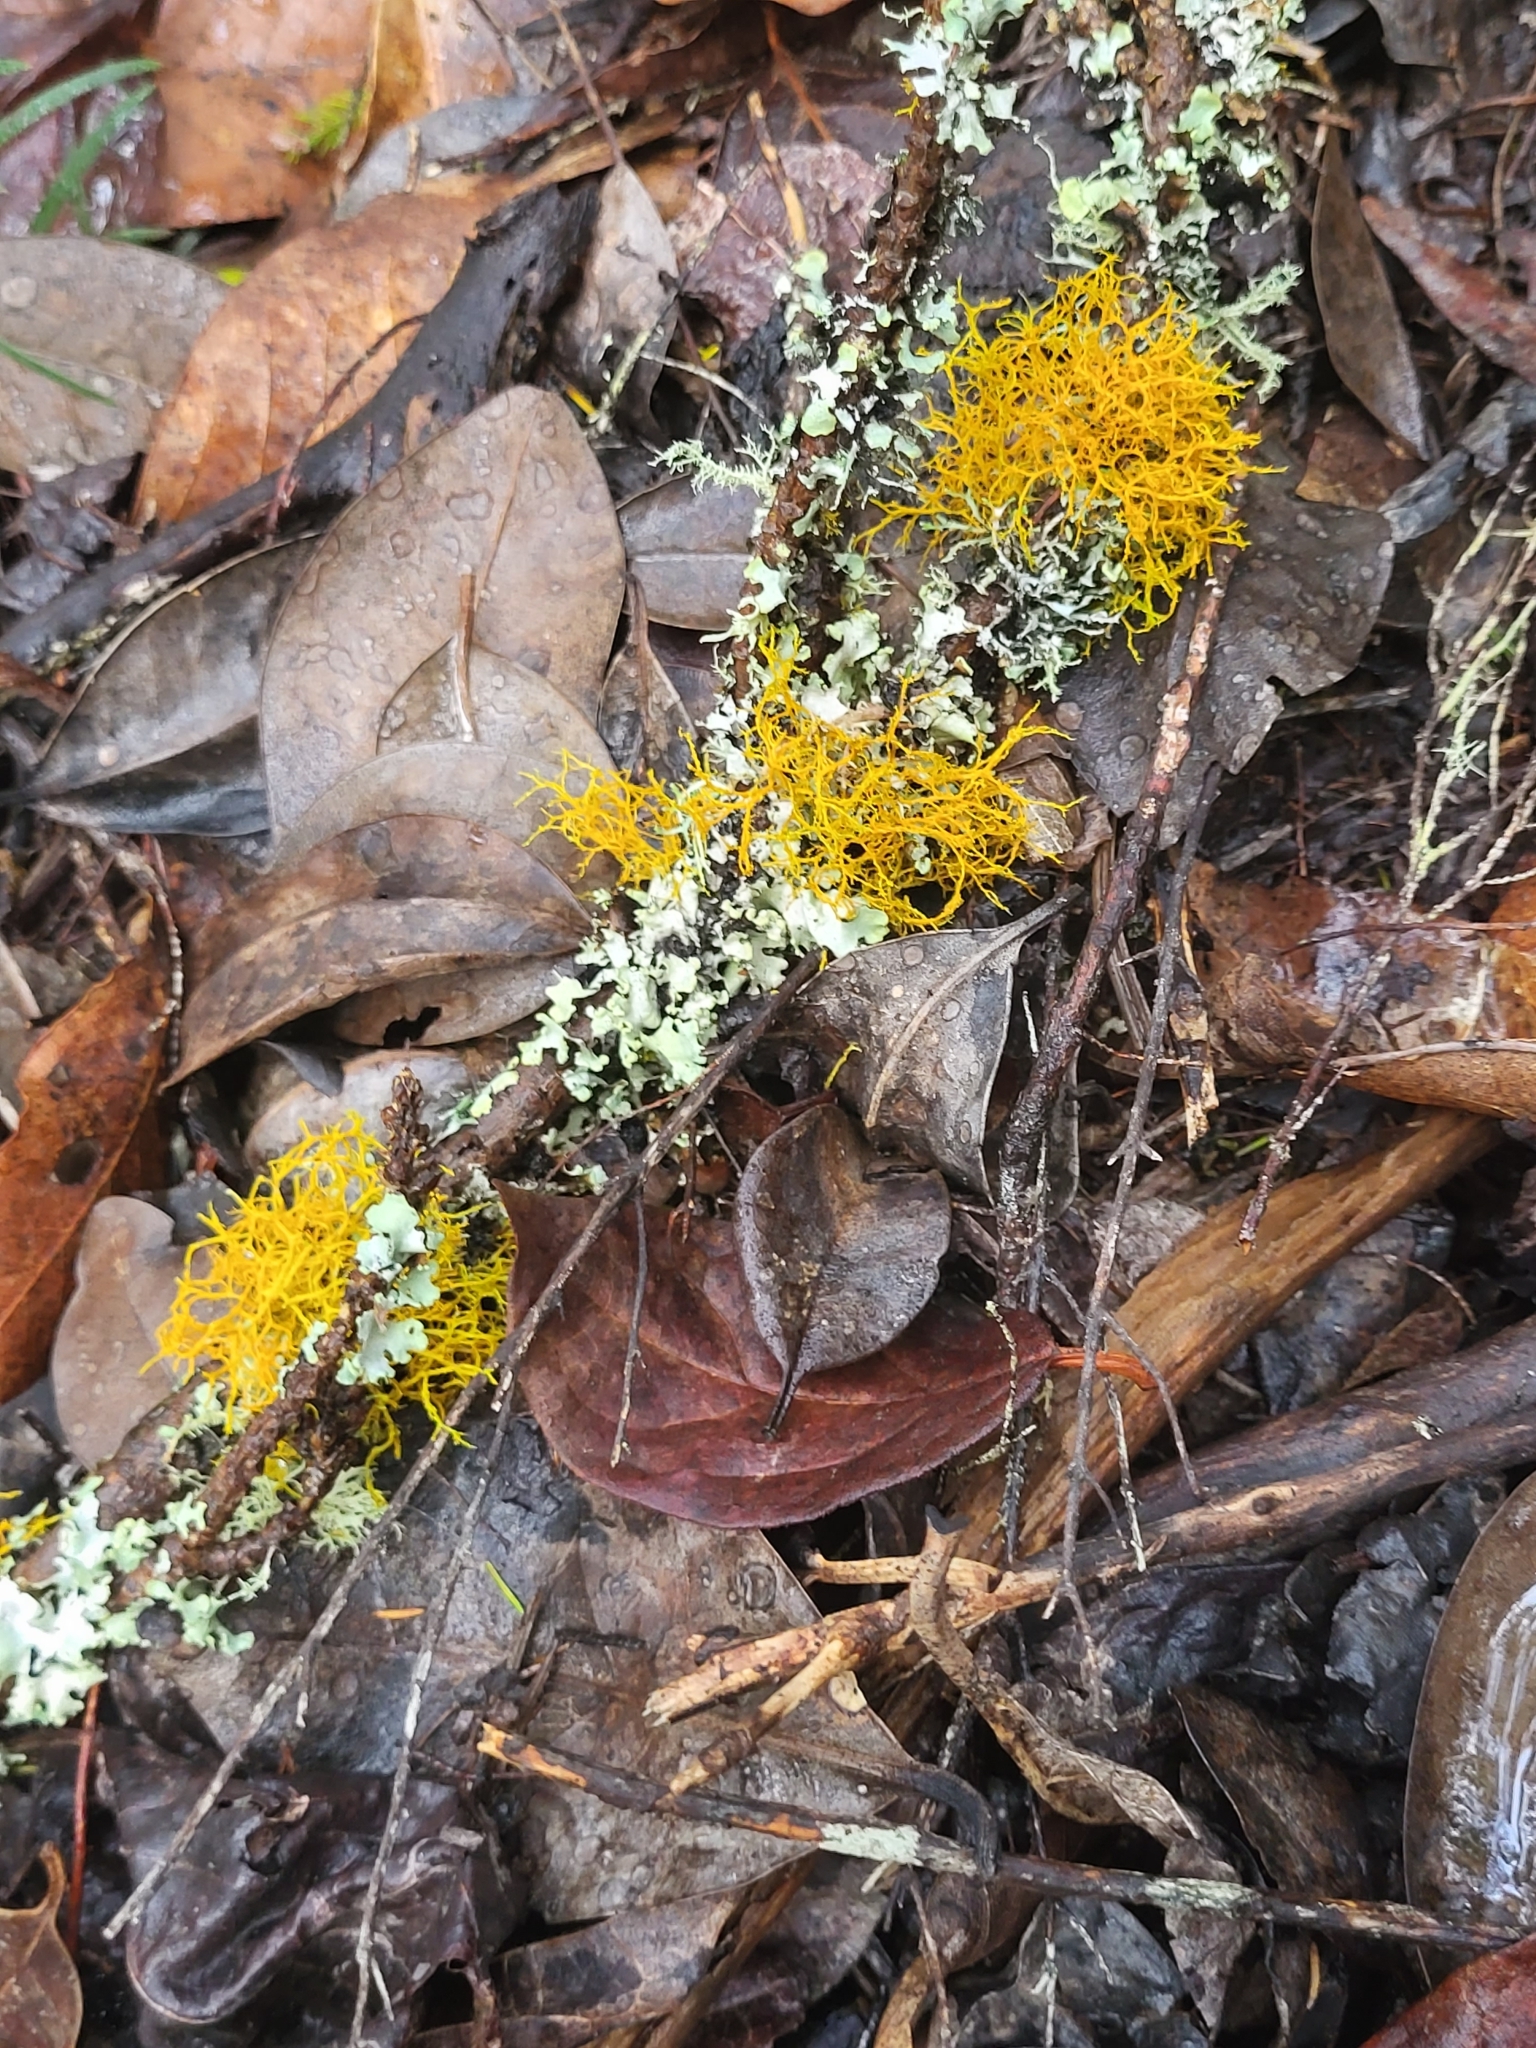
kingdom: Fungi
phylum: Ascomycota
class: Lecanoromycetes
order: Teloschistales
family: Teloschistaceae
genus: Teloschistes
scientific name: Teloschistes flavicans
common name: Golden hair-lichen
